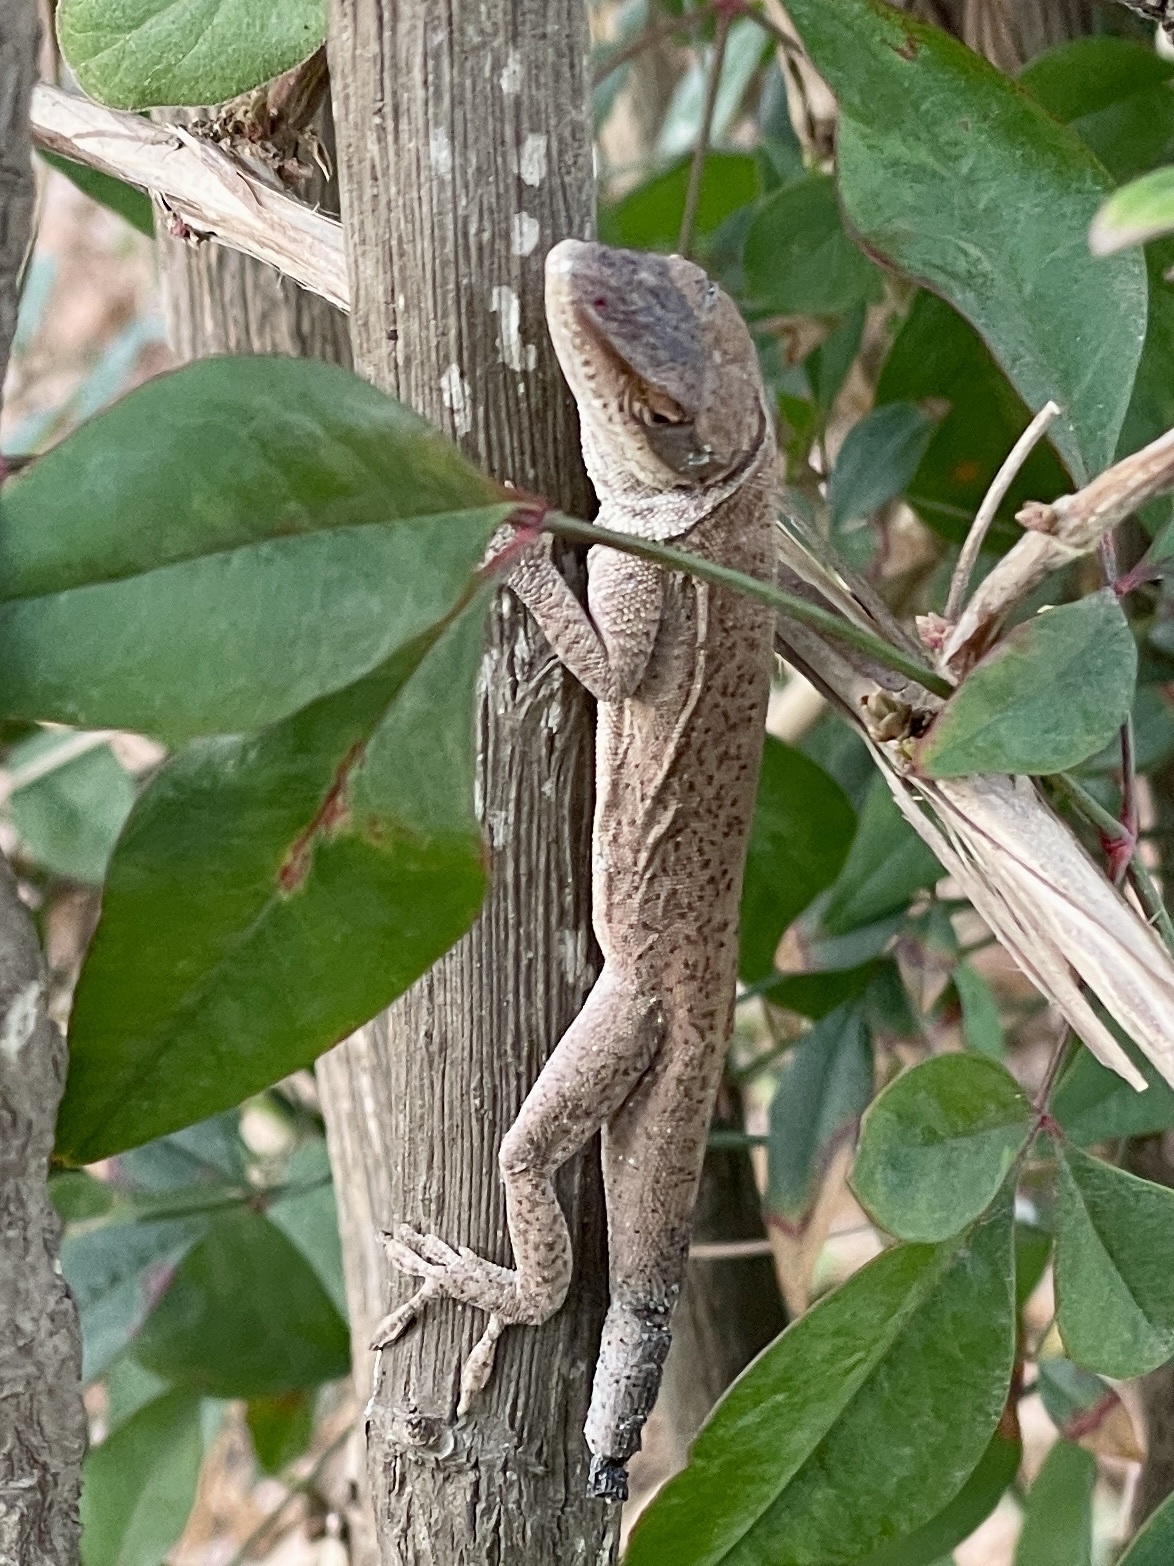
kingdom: Animalia
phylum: Chordata
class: Squamata
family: Dactyloidae
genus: Anolis
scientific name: Anolis carolinensis
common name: Green anole
